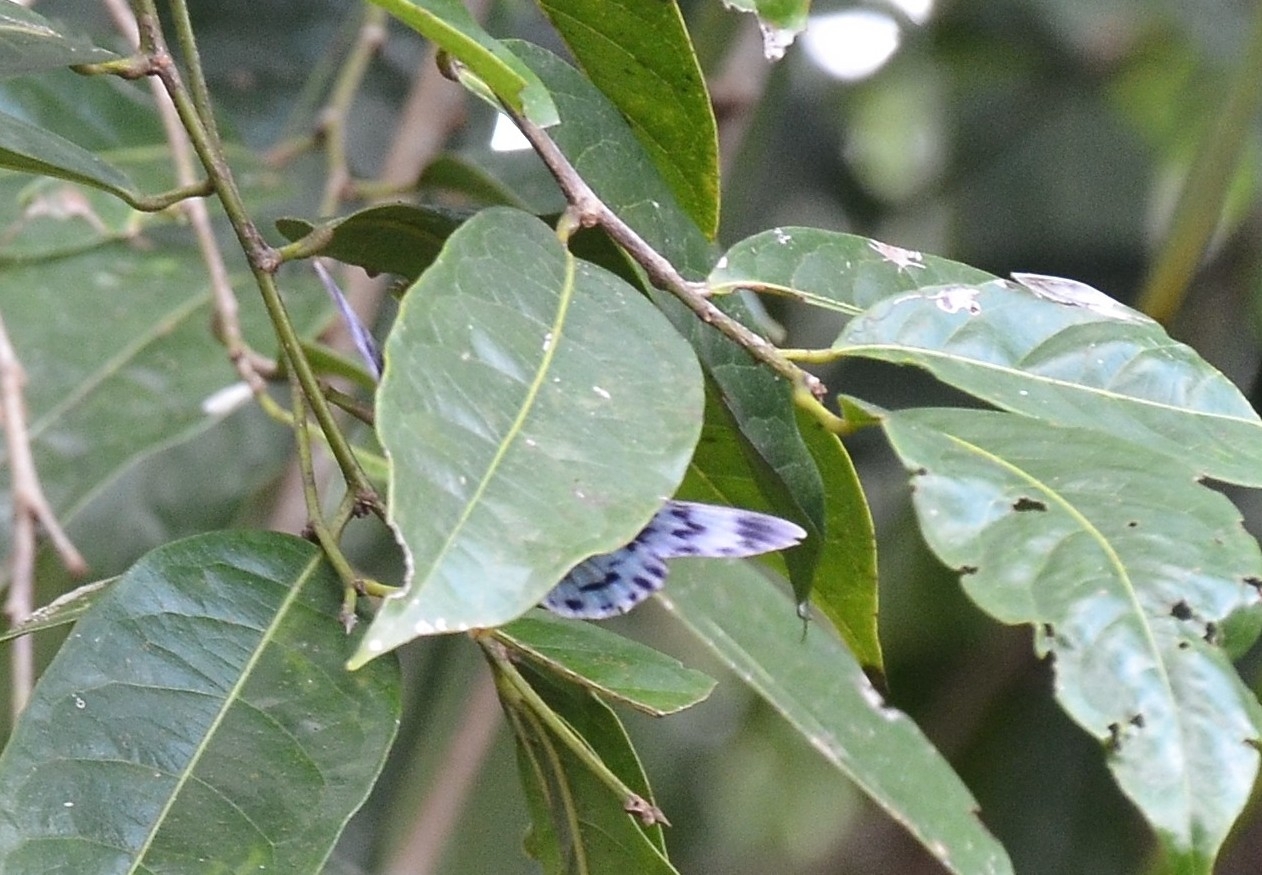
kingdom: Animalia
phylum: Arthropoda
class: Insecta
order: Lepidoptera
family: Geometridae
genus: Dysphania
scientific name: Dysphania percota
